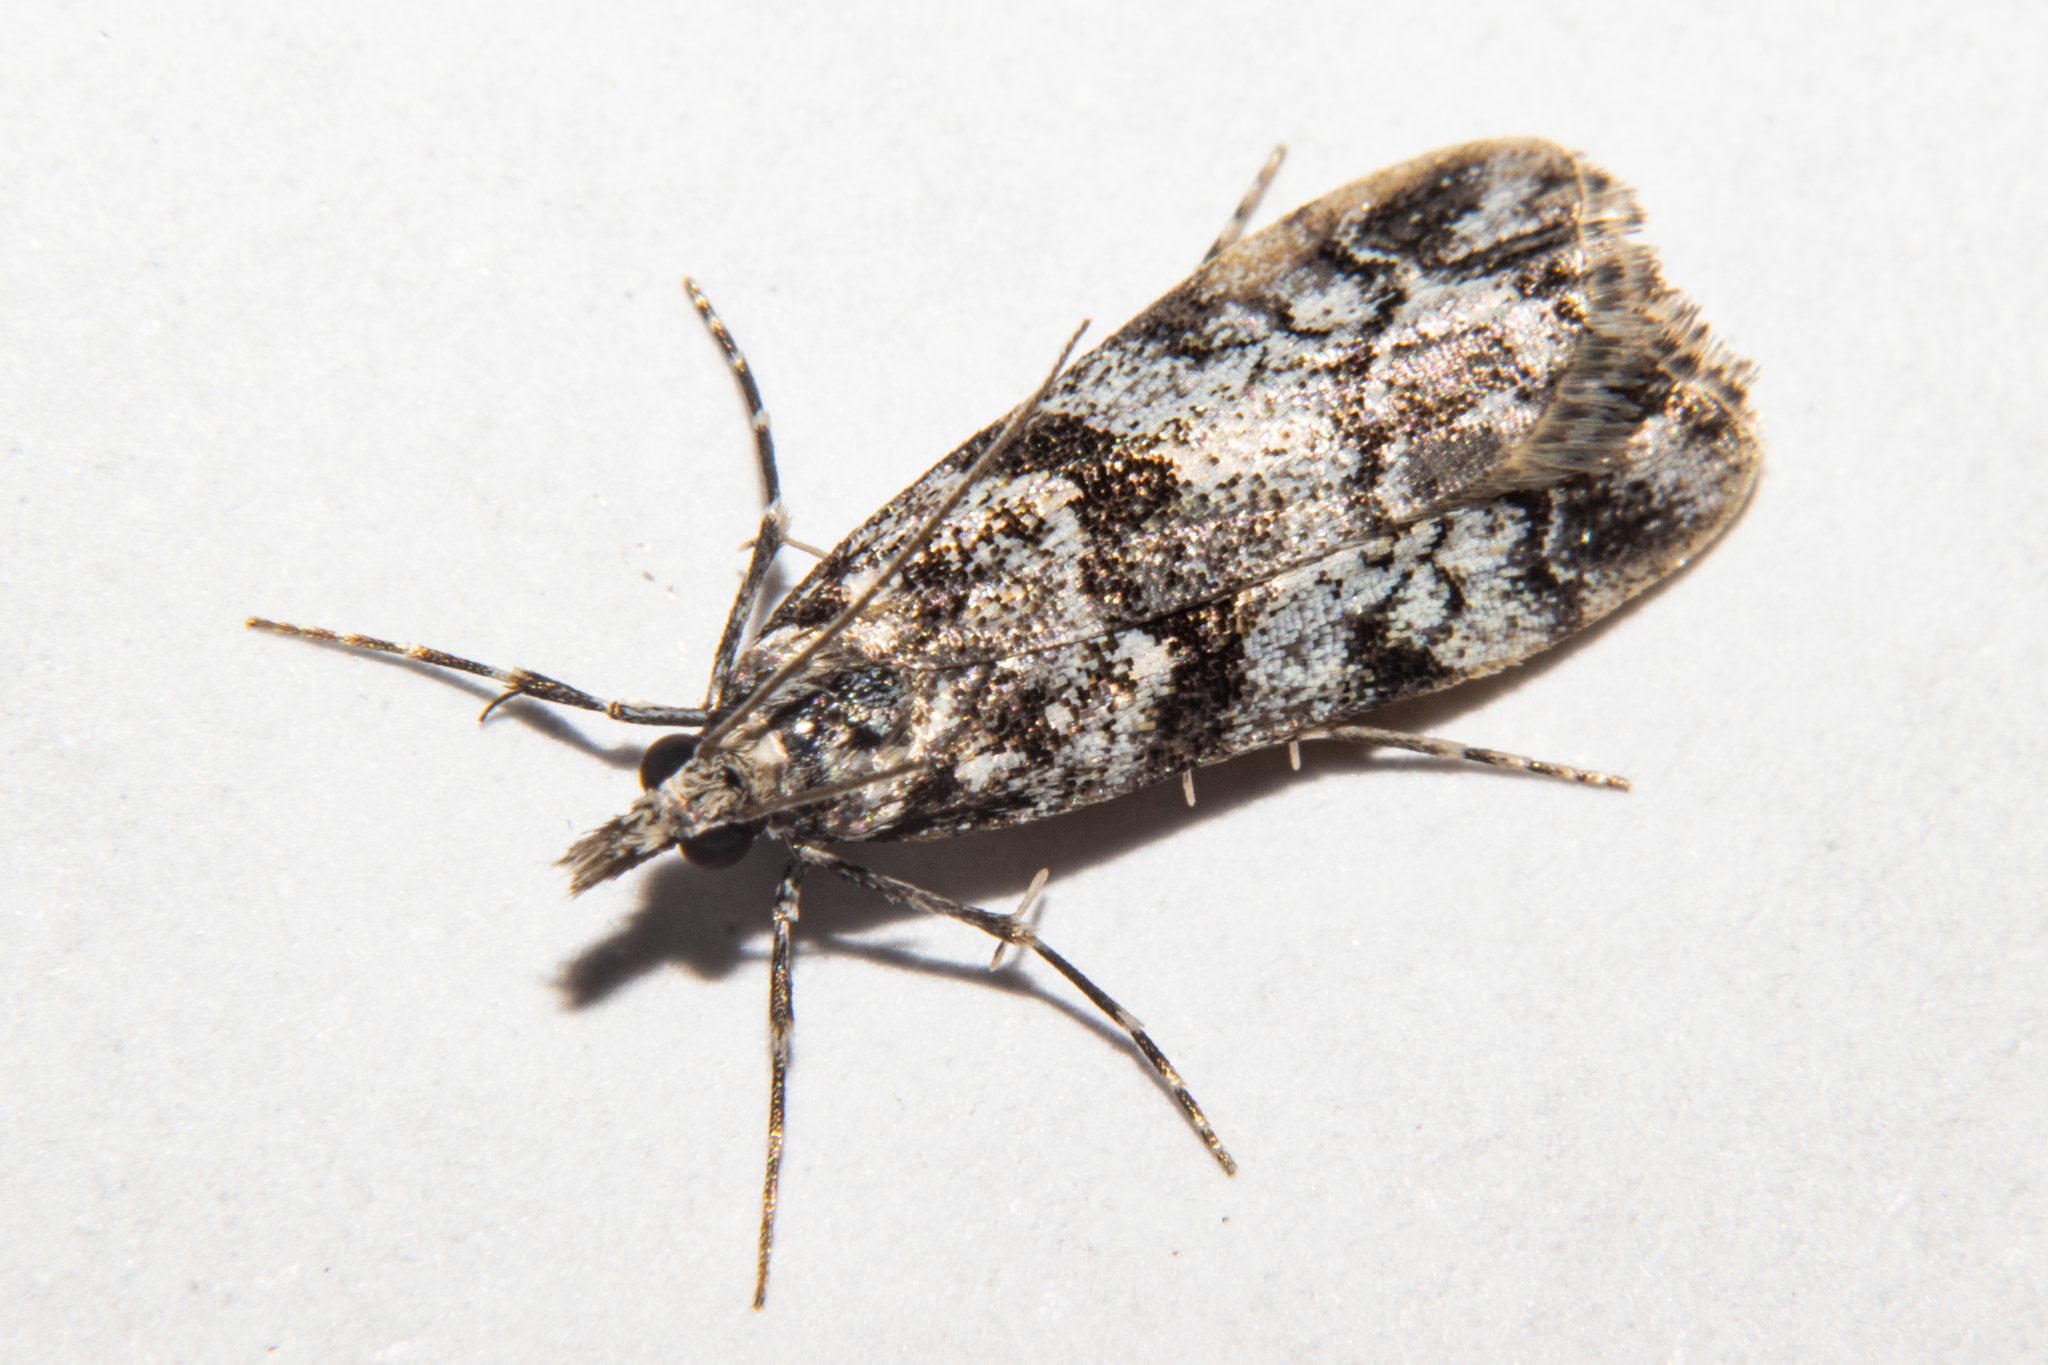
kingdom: Animalia
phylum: Arthropoda
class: Insecta
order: Lepidoptera
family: Crambidae
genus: Eudonia
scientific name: Eudonia torodes
